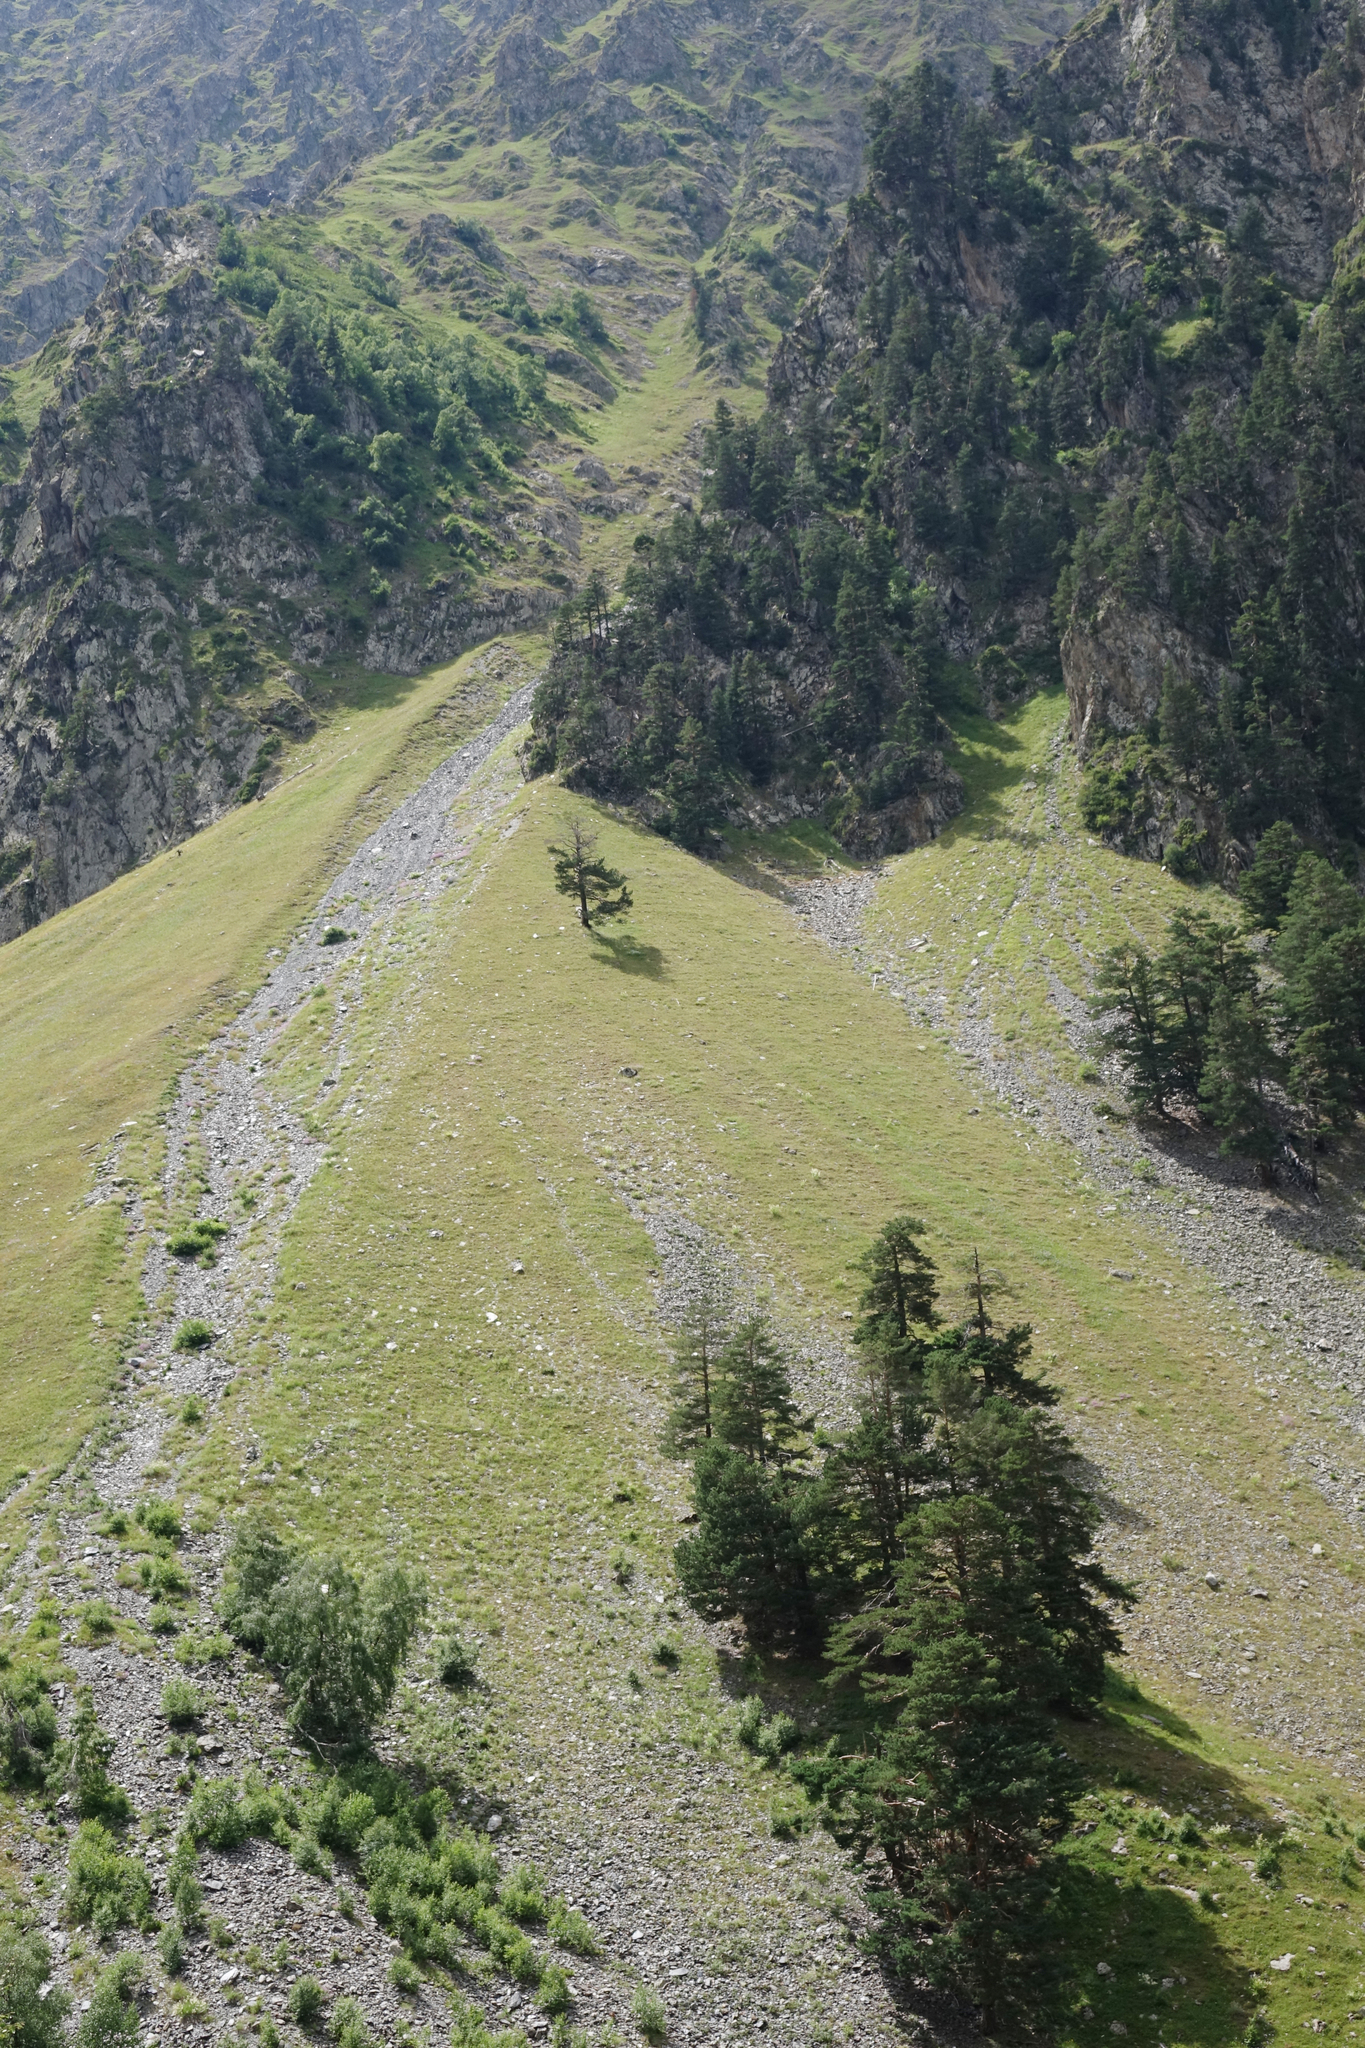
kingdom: Plantae
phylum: Tracheophyta
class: Pinopsida
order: Pinales
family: Pinaceae
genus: Pinus
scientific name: Pinus sylvestris
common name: Scots pine
